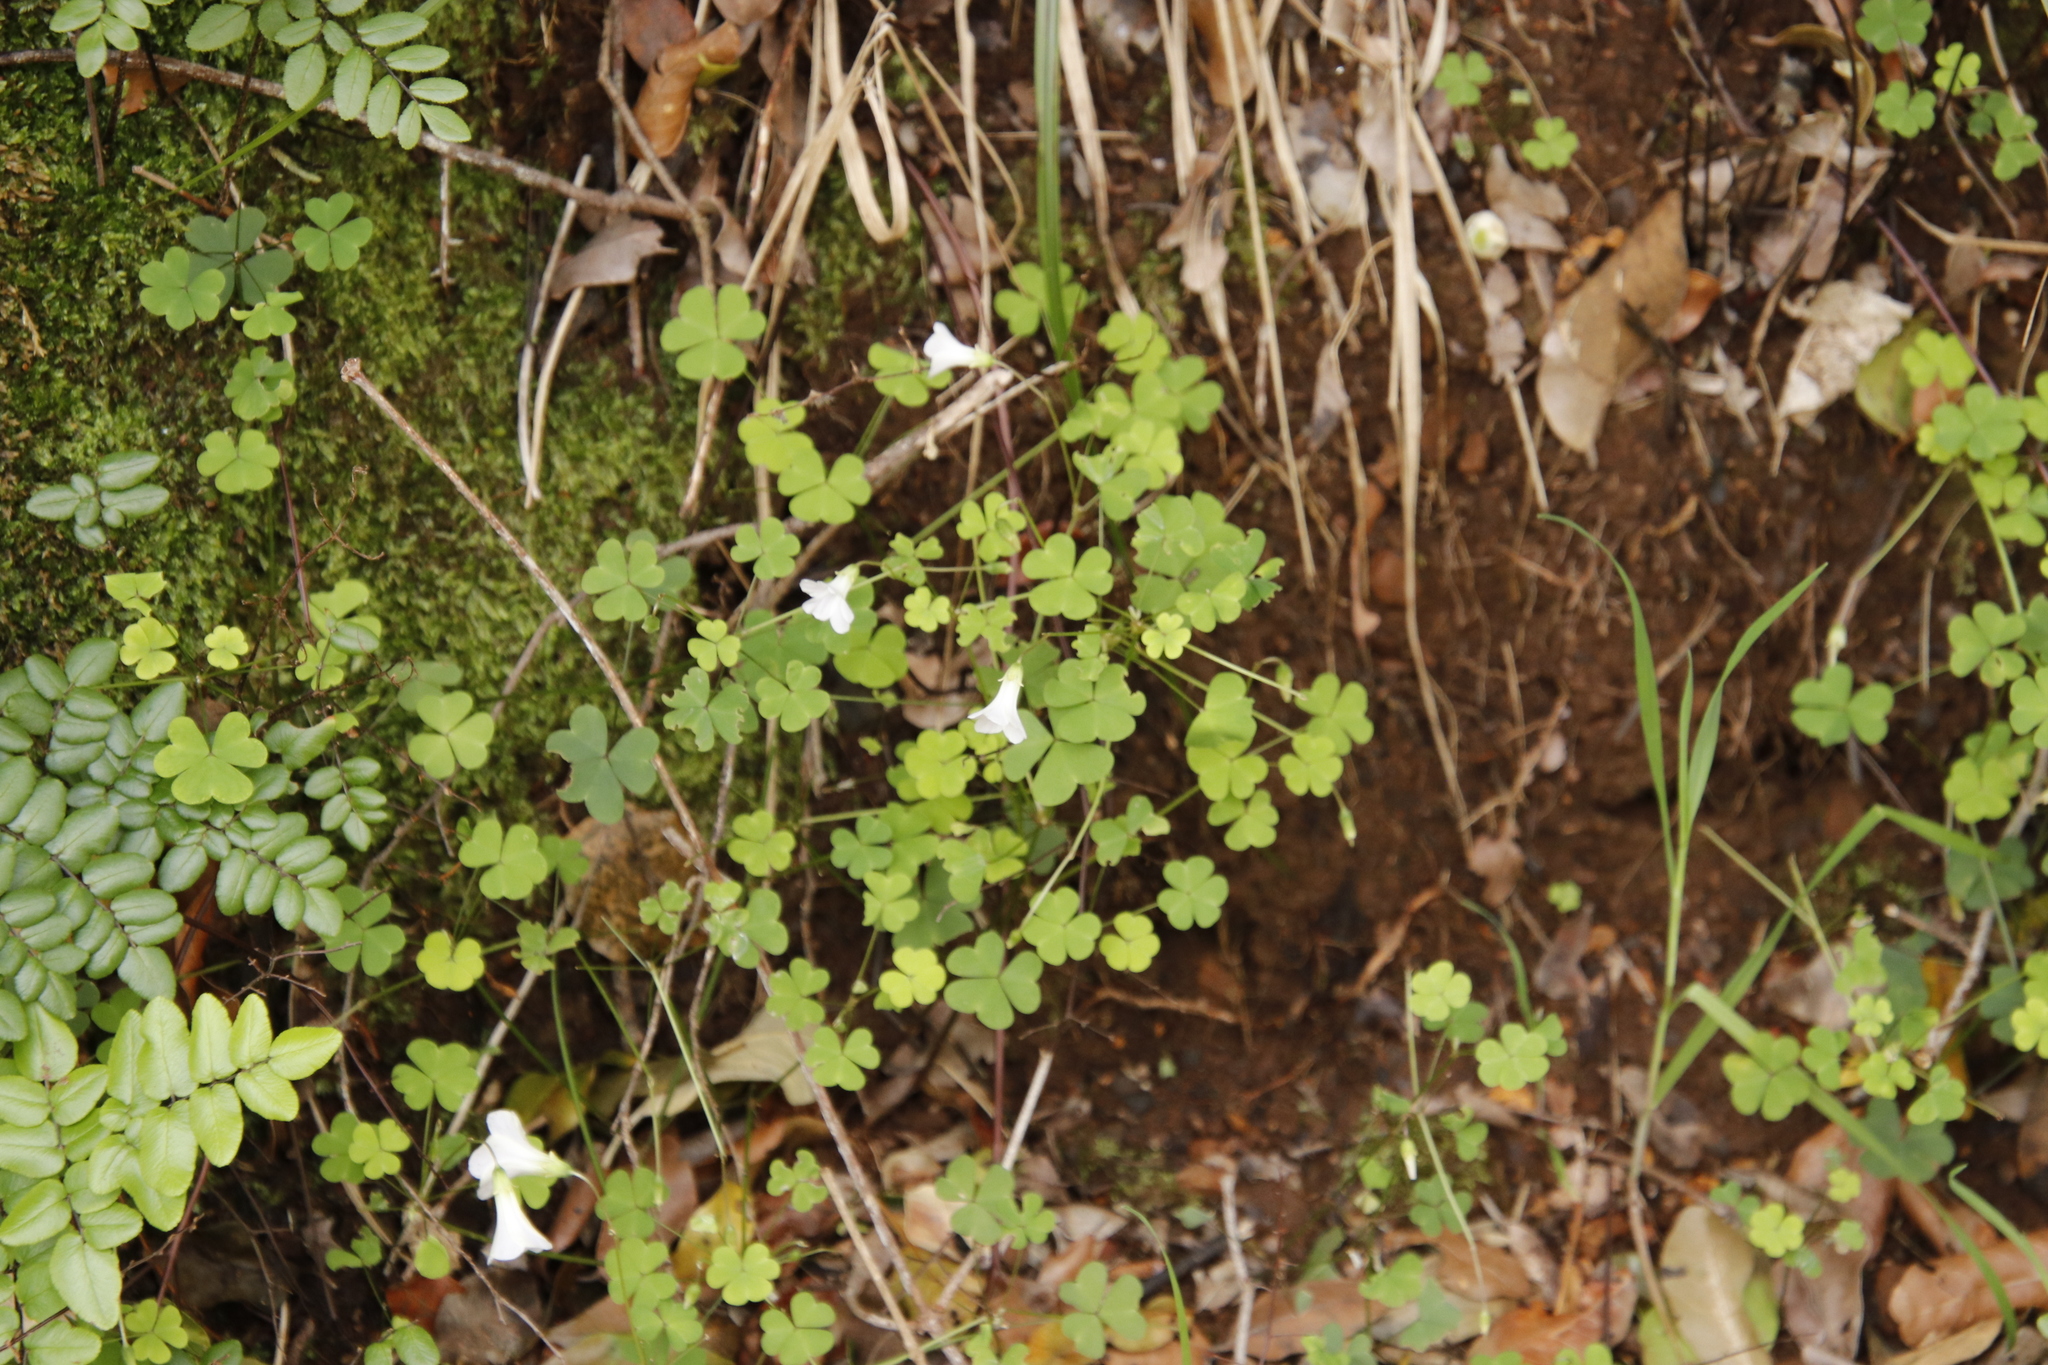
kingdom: Plantae
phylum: Tracheophyta
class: Magnoliopsida
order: Oxalidales
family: Oxalidaceae
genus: Oxalis
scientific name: Oxalis incarnata
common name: Pale pink-sorrel
